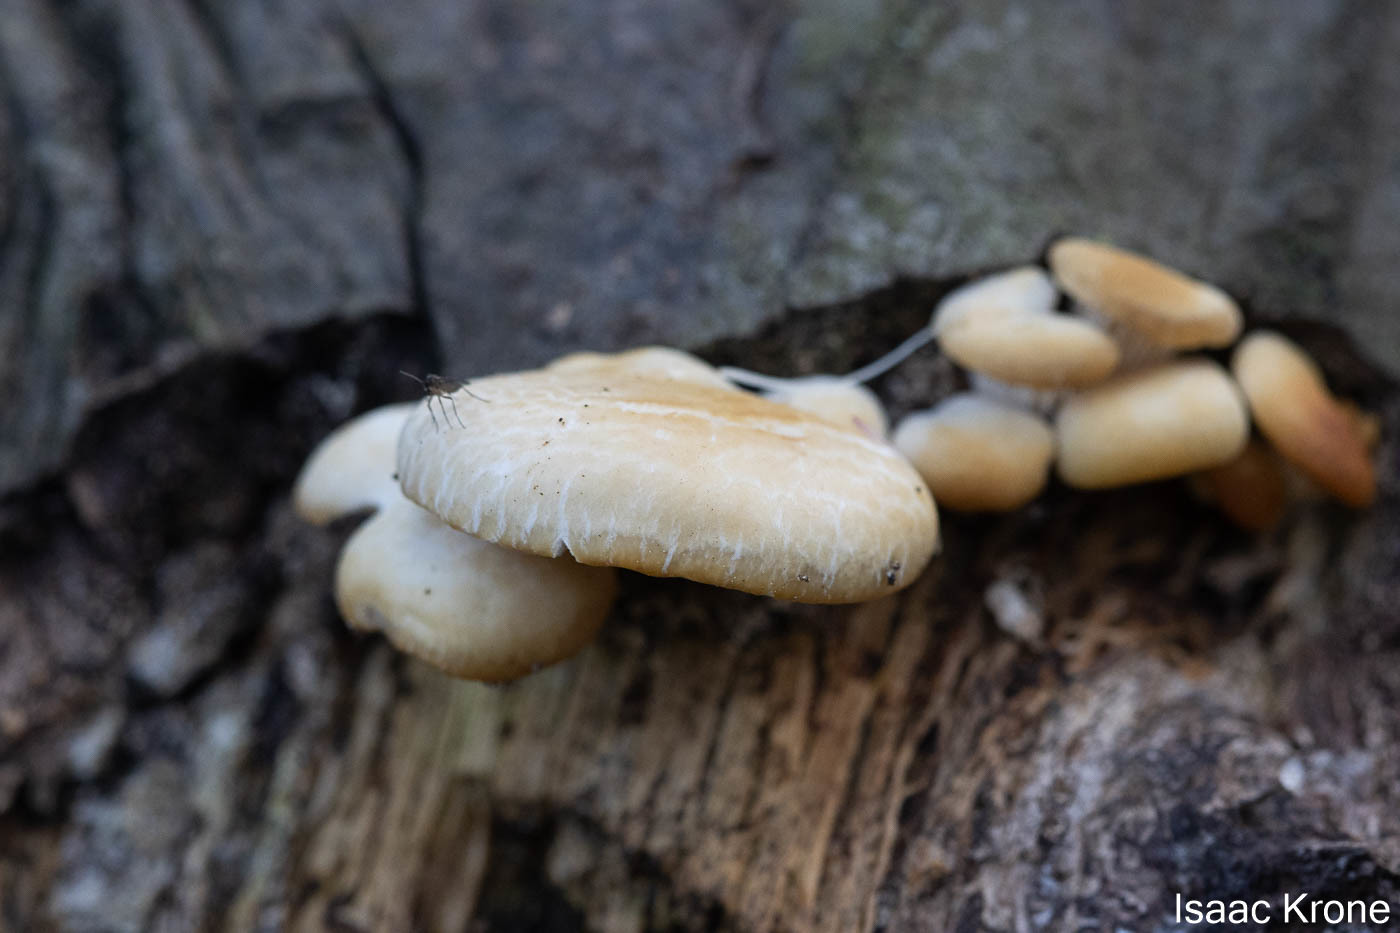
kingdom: Fungi
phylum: Basidiomycota
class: Agaricomycetes
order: Agaricales
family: Pleurotaceae
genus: Pleurotus
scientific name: Pleurotus ostreatus
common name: Oyster mushroom
